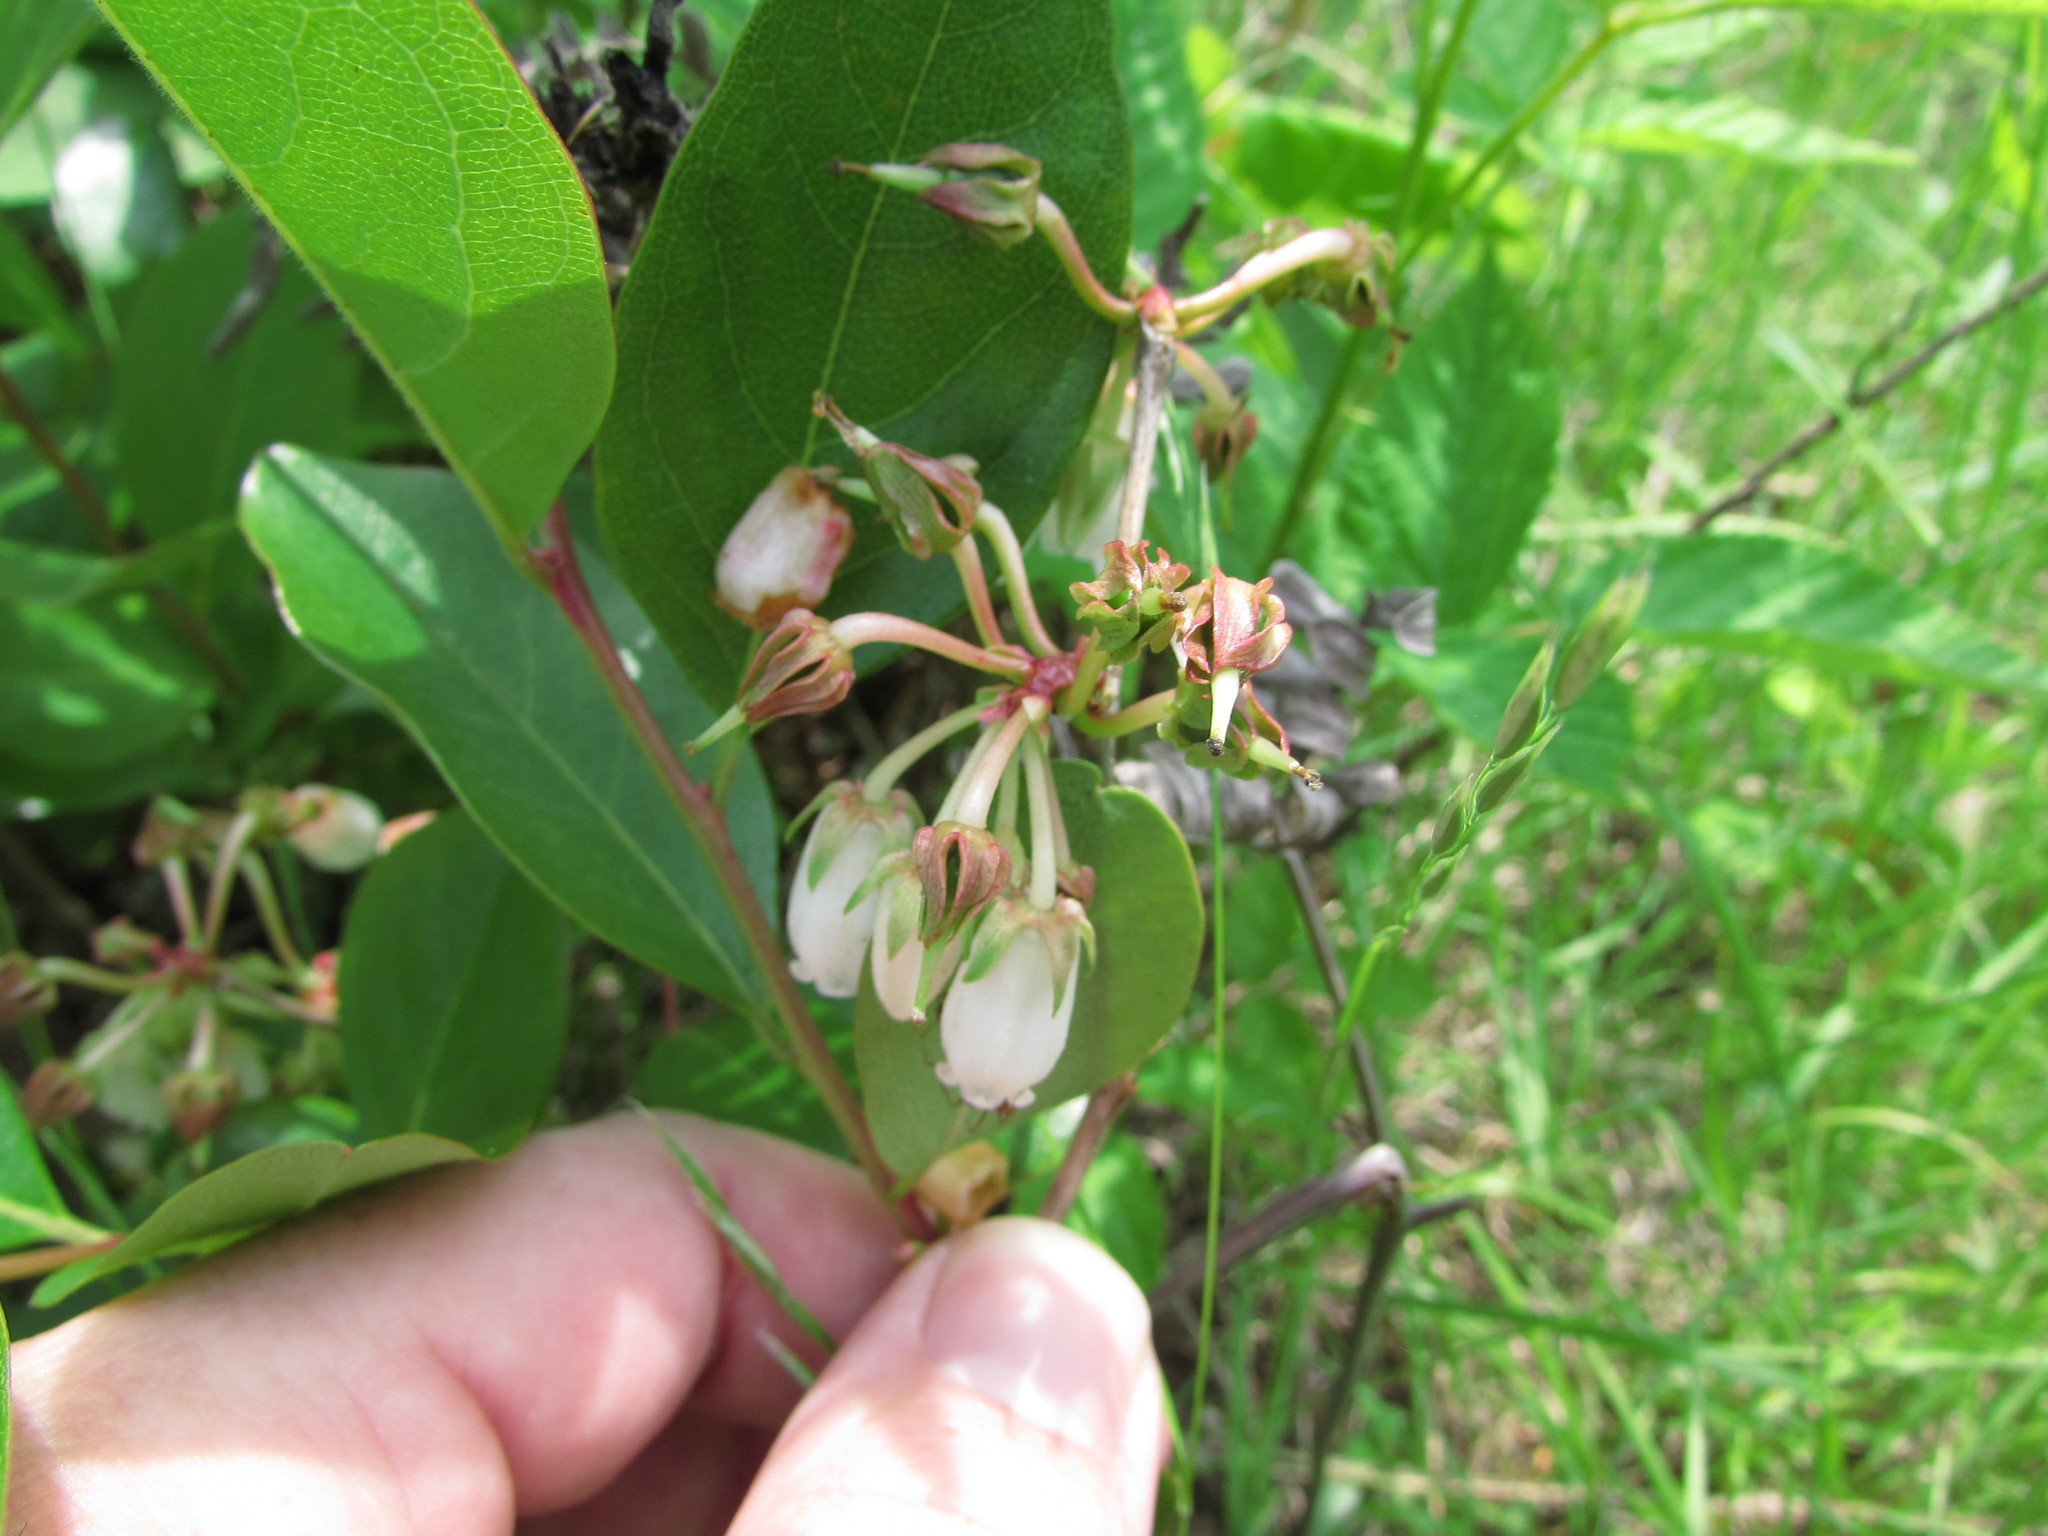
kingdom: Plantae
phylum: Tracheophyta
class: Magnoliopsida
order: Ericales
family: Ericaceae
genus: Lyonia
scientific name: Lyonia mariana
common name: Staggerbush
